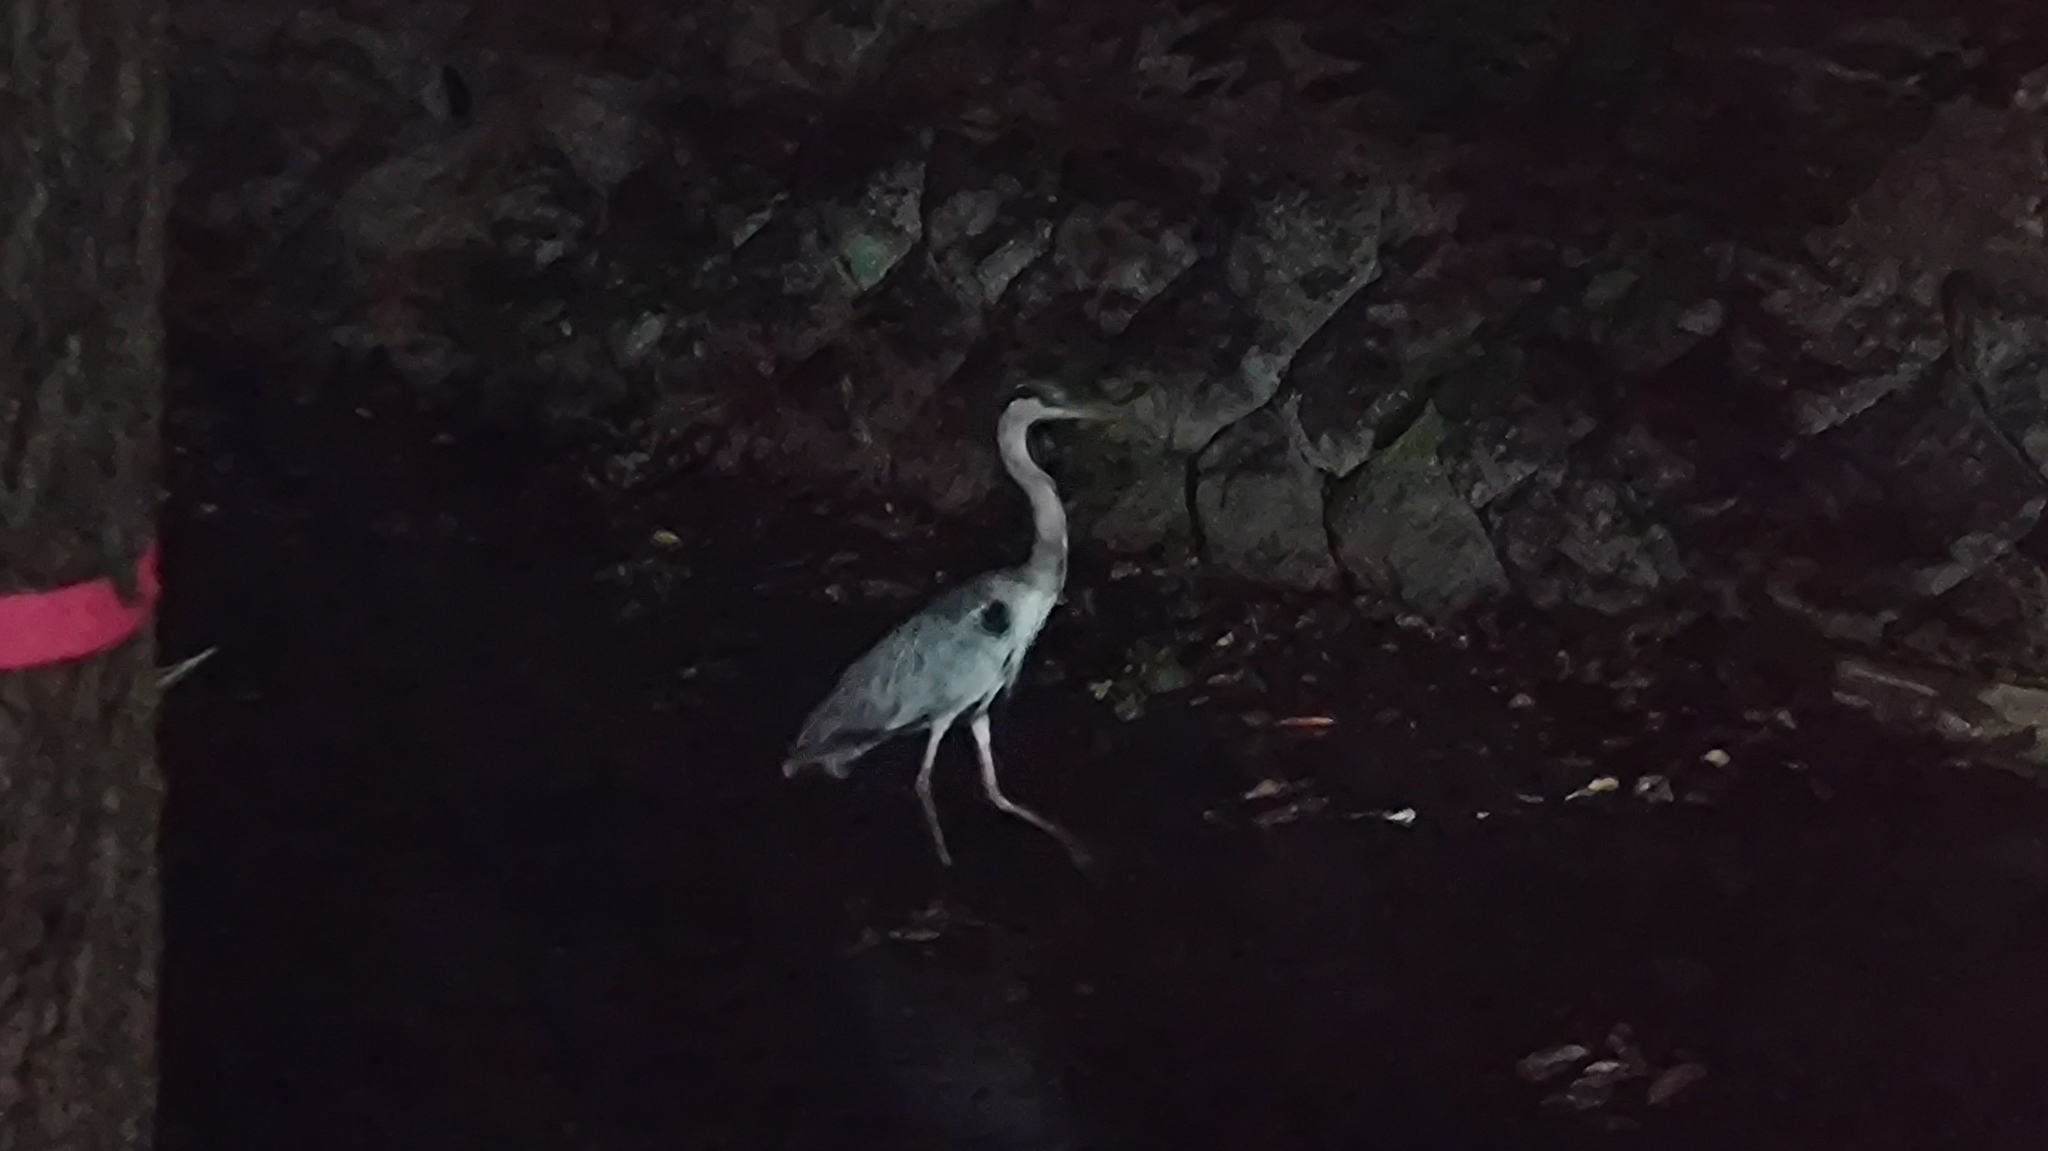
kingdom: Animalia
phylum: Chordata
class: Aves
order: Pelecaniformes
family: Ardeidae
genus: Ardea
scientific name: Ardea cinerea
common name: Grey heron
